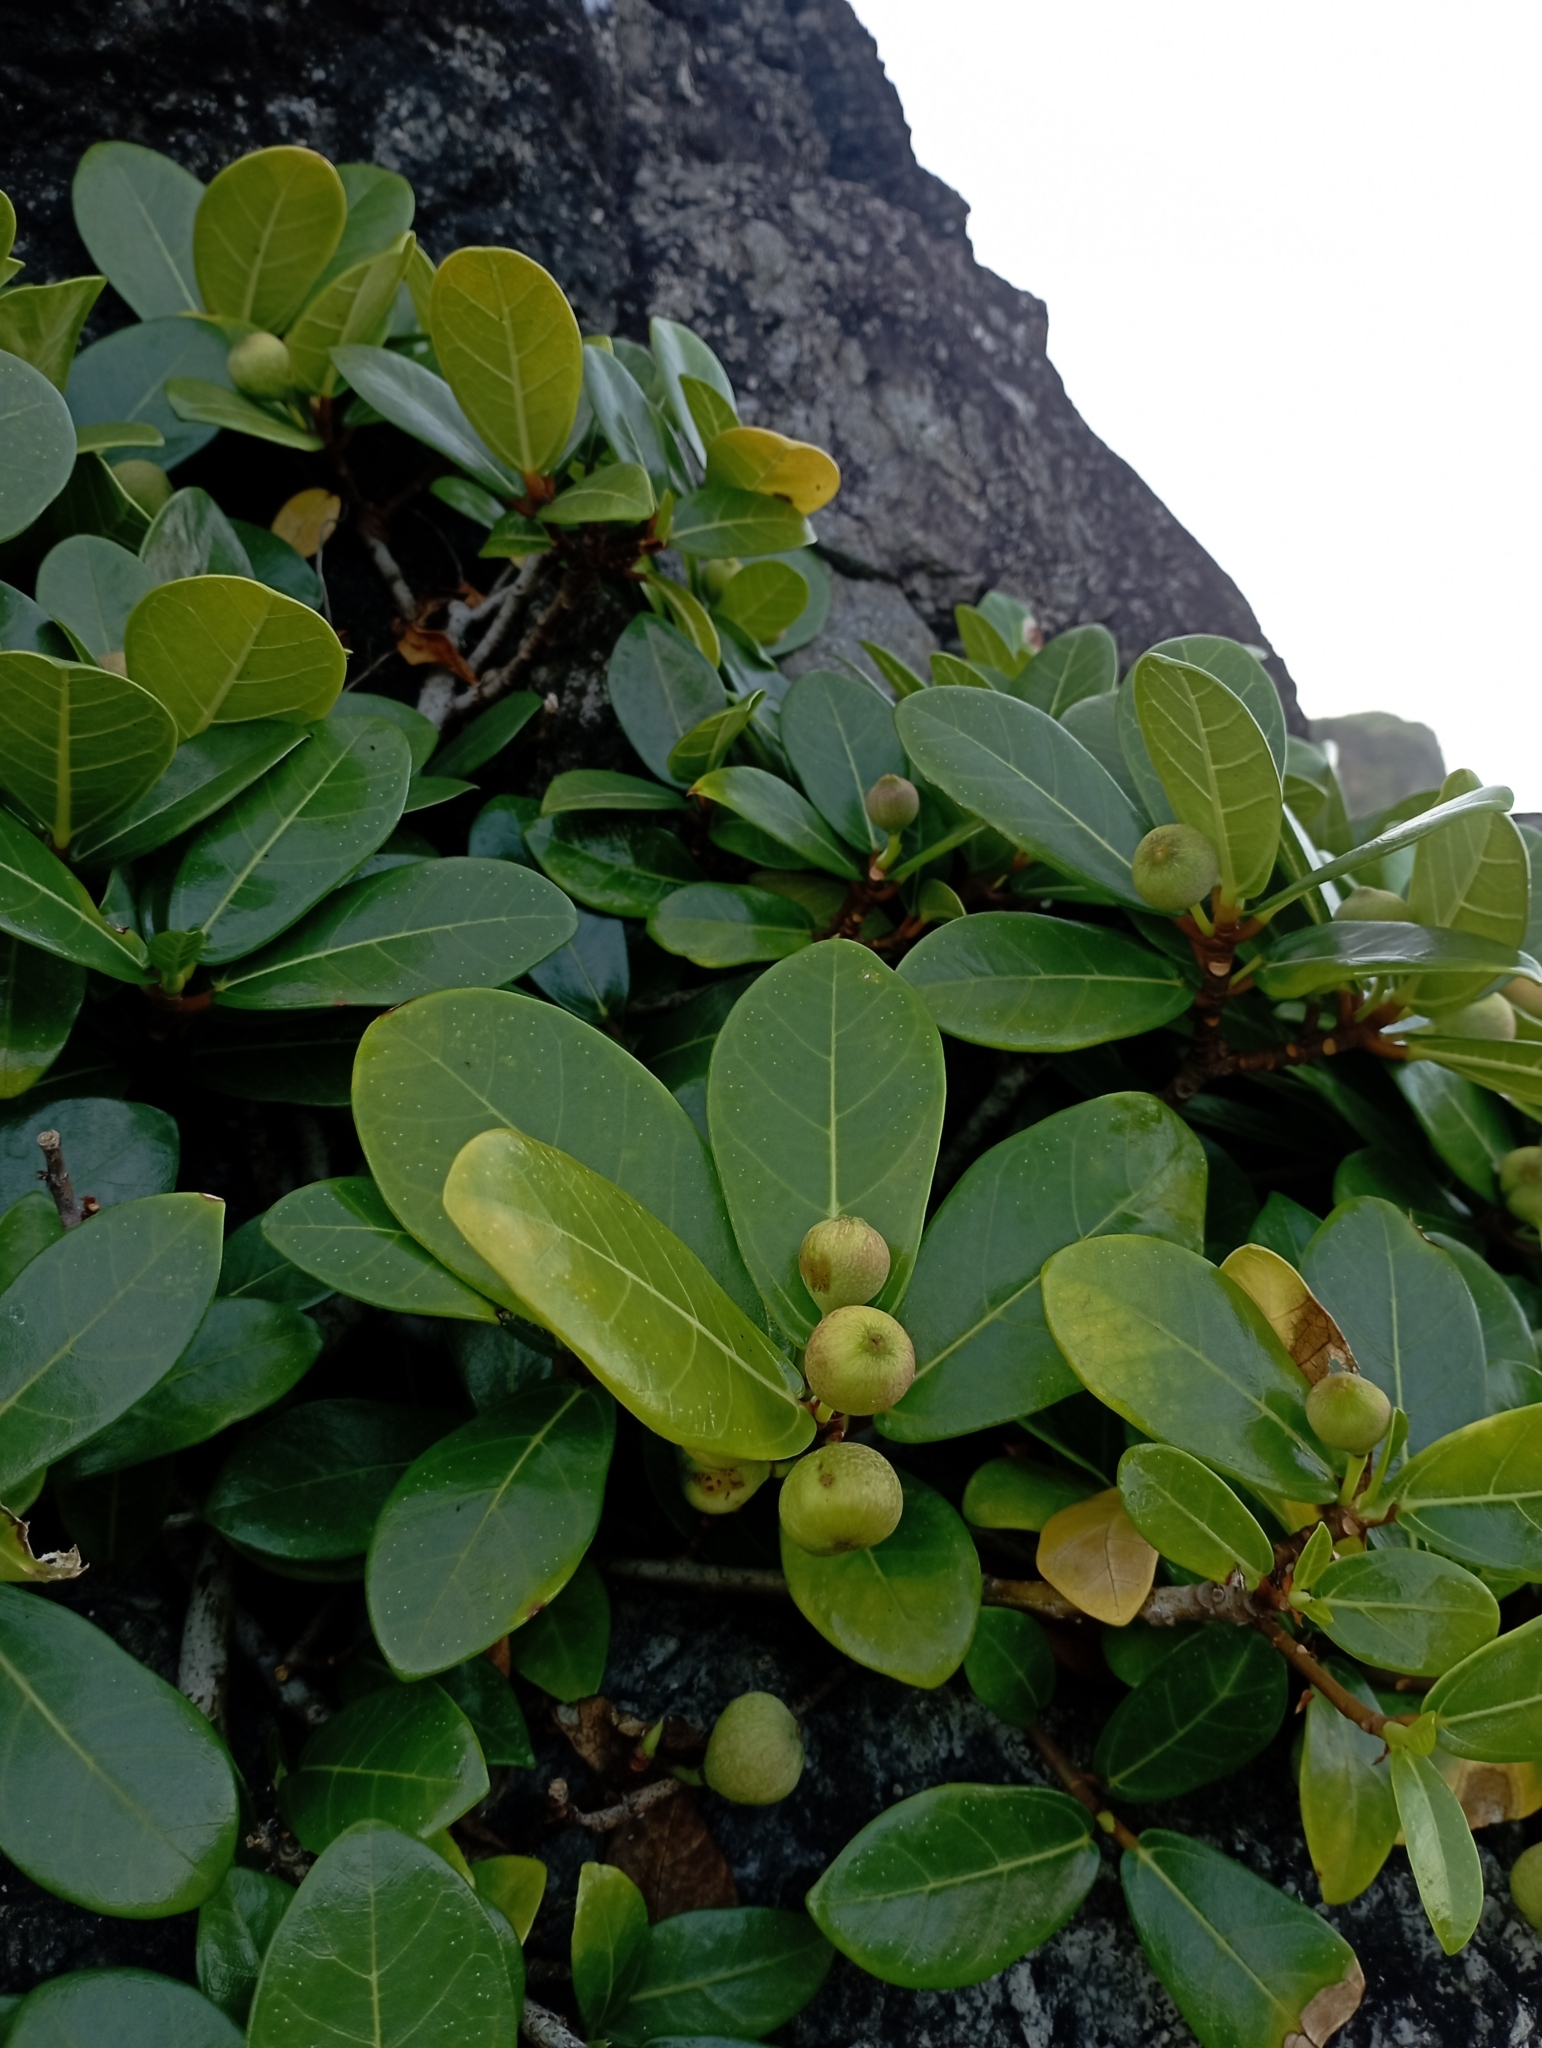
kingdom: Plantae
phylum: Tracheophyta
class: Magnoliopsida
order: Rosales
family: Moraceae
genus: Ficus
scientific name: Ficus pedunculosa
